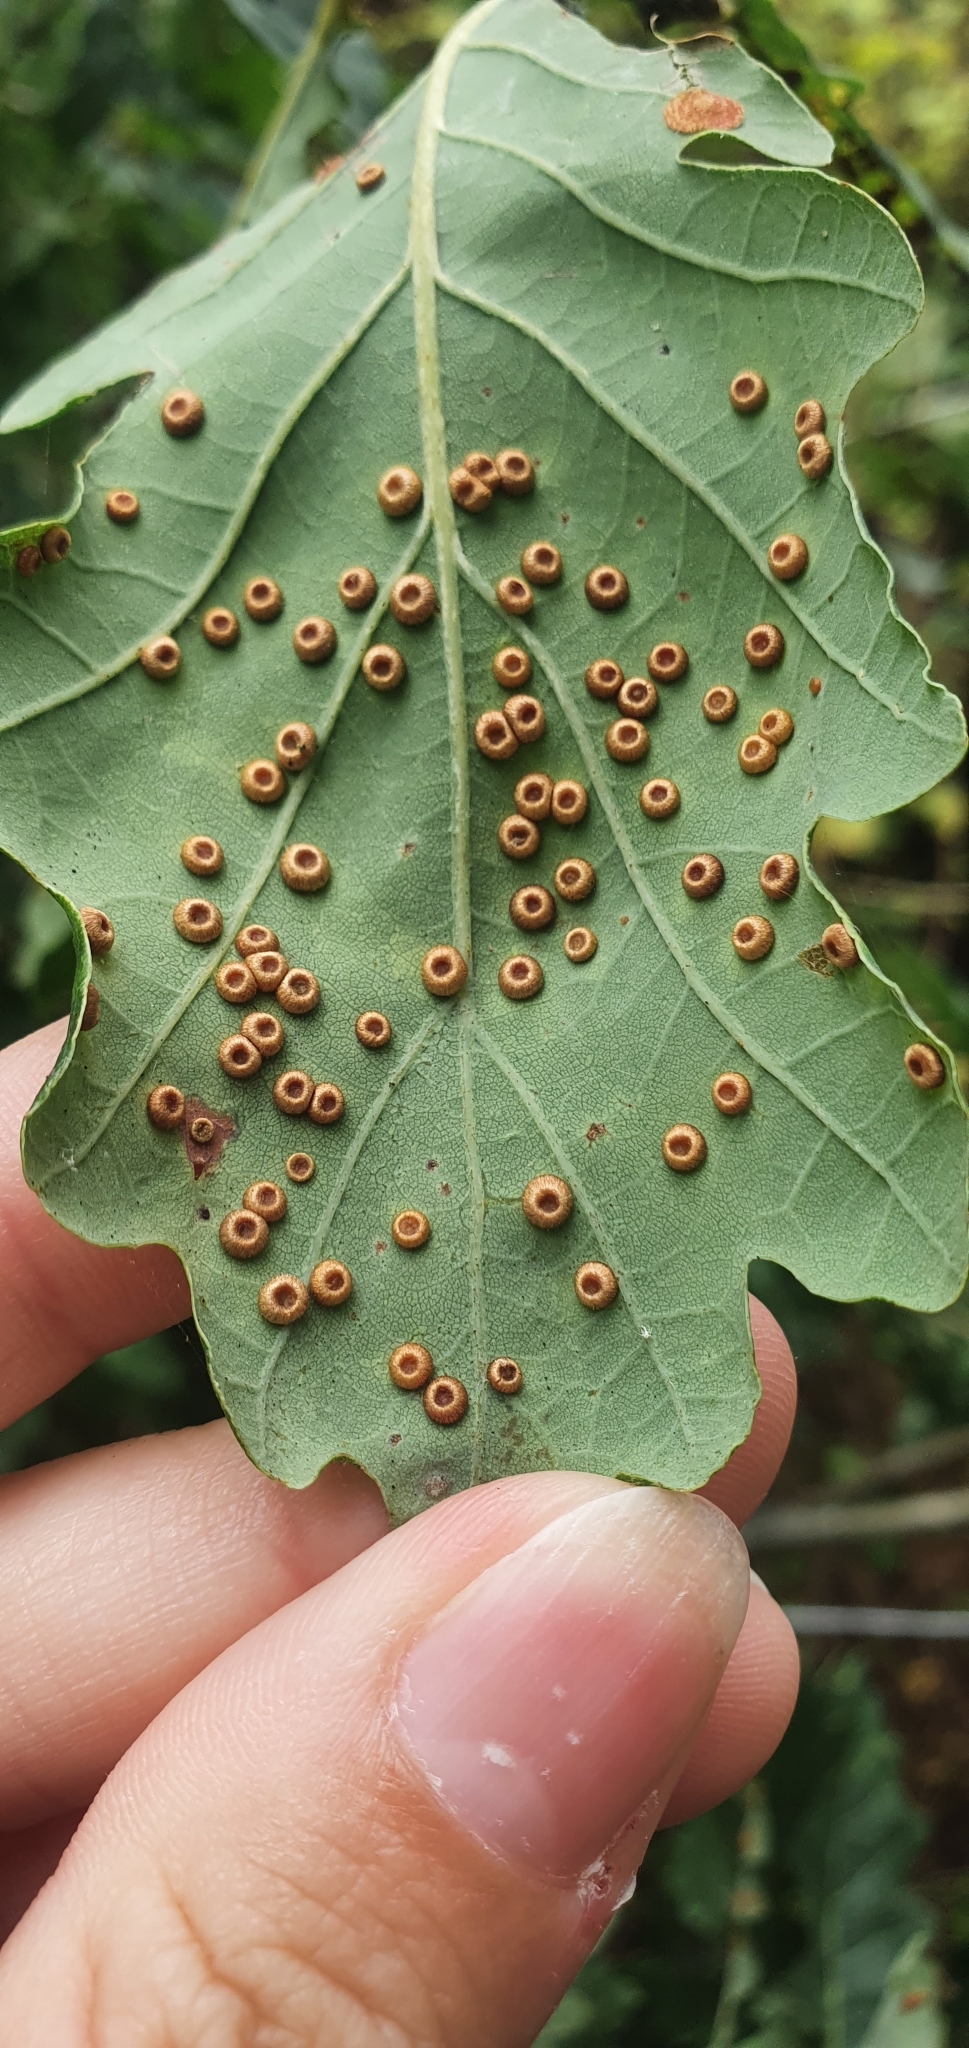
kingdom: Animalia
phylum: Arthropoda
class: Insecta
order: Hymenoptera
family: Cynipidae
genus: Neuroterus
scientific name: Neuroterus numismalis
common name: Silk-button spangle gall
